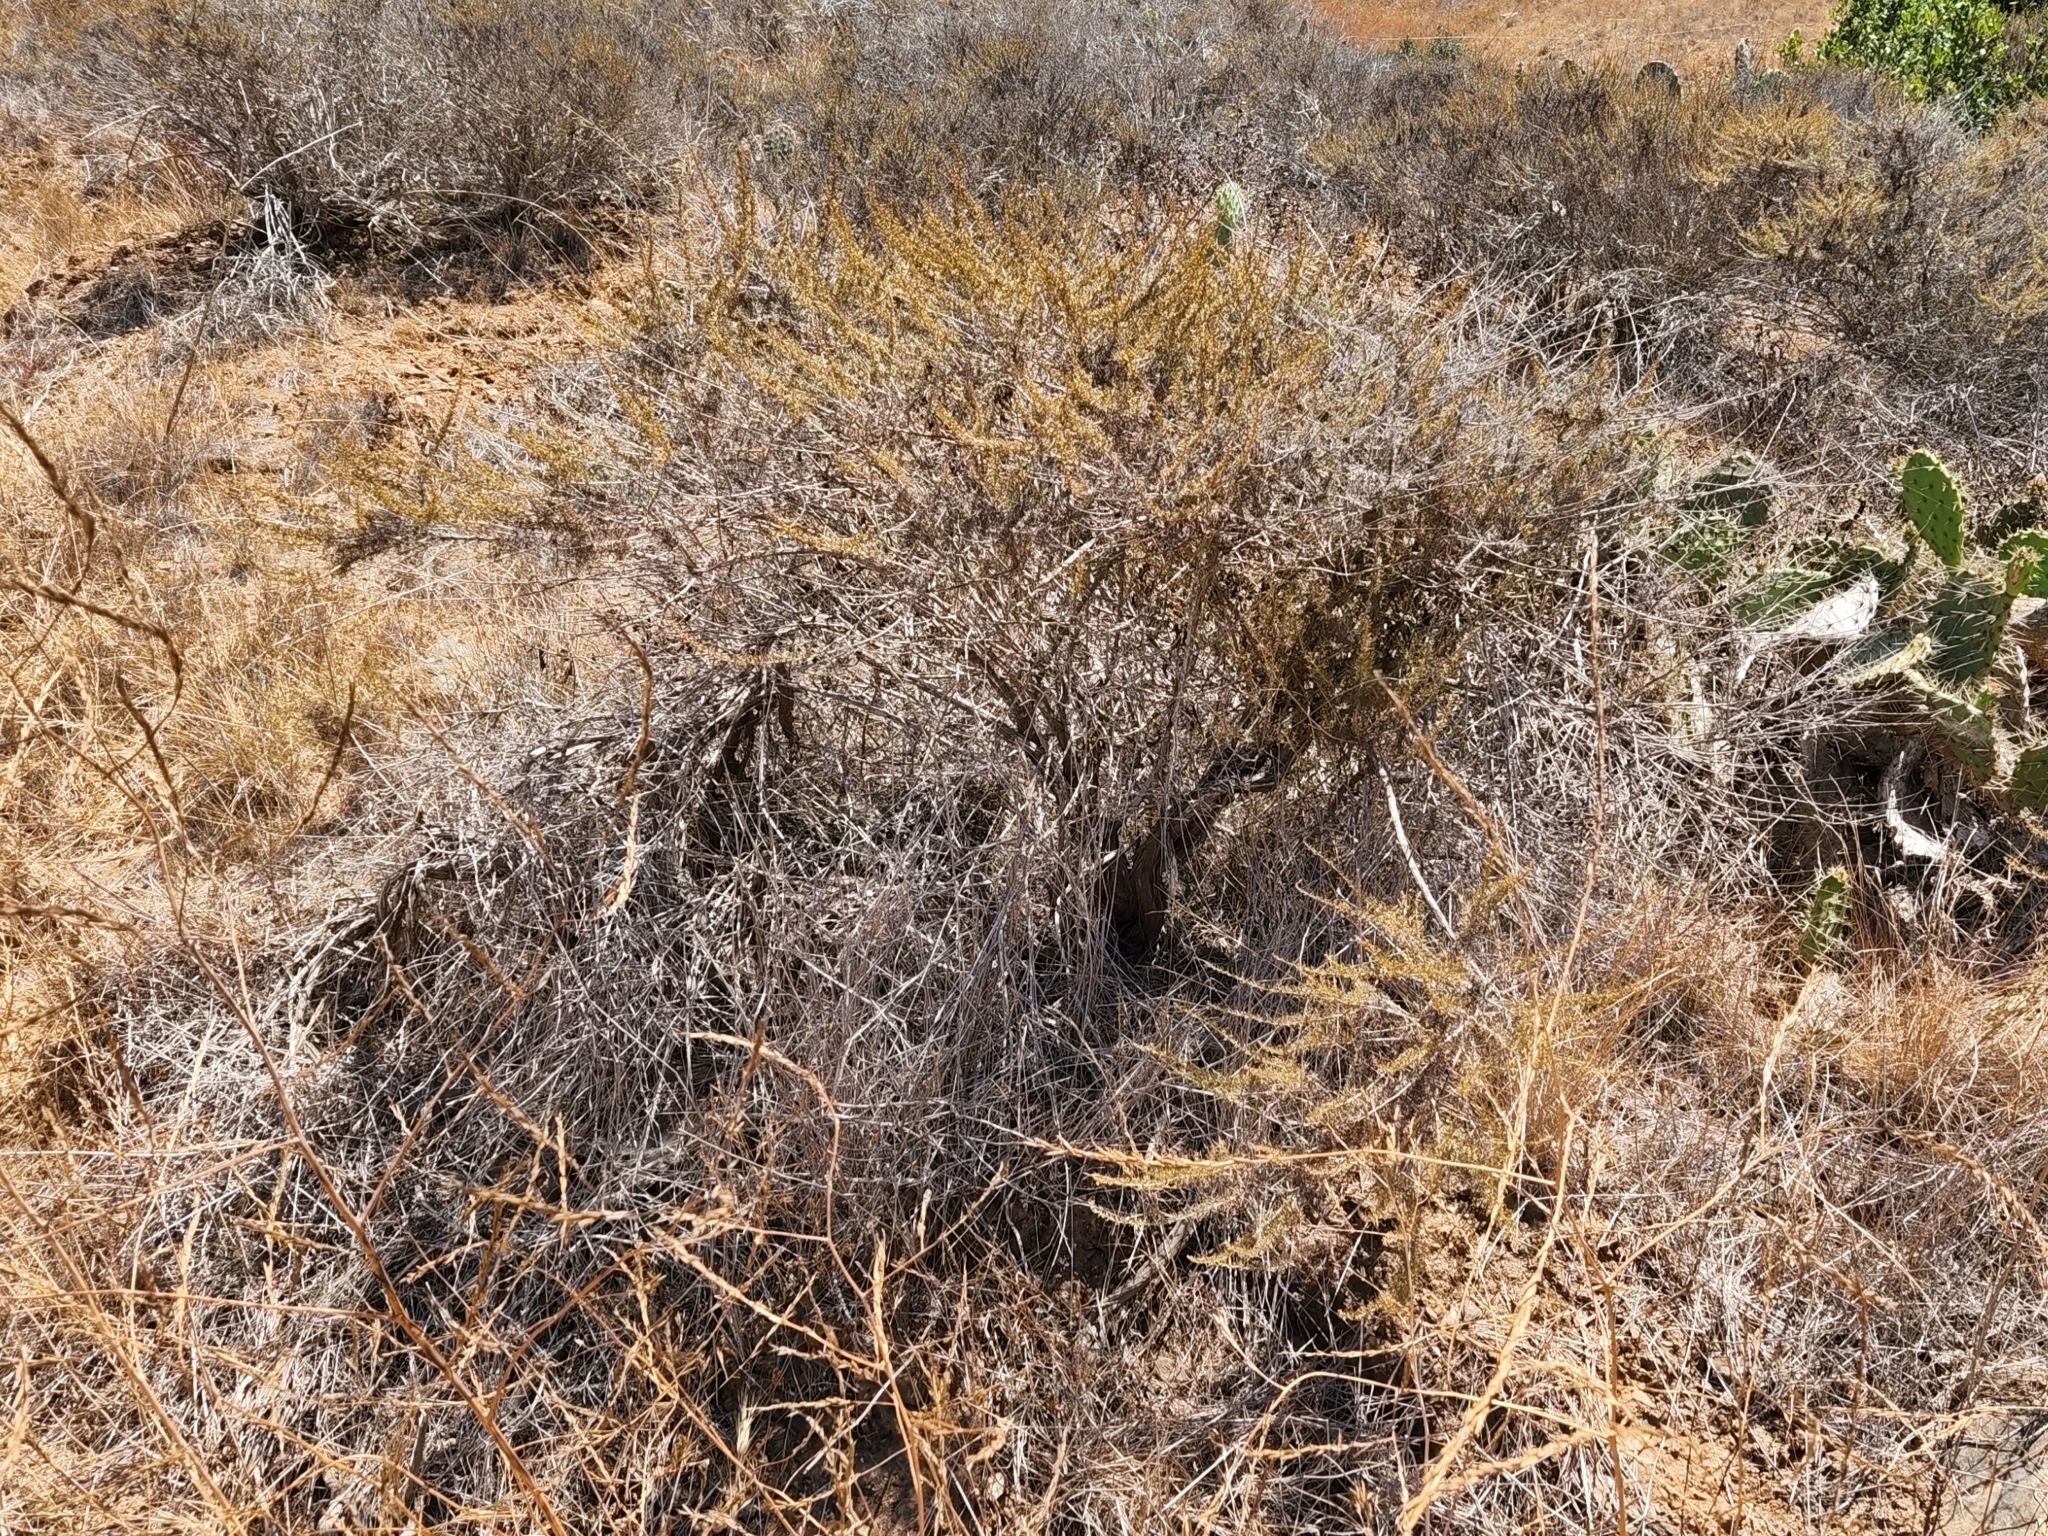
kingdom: Plantae
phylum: Tracheophyta
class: Magnoliopsida
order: Asterales
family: Asteraceae
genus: Artemisia
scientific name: Artemisia californica
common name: California sagebrush
